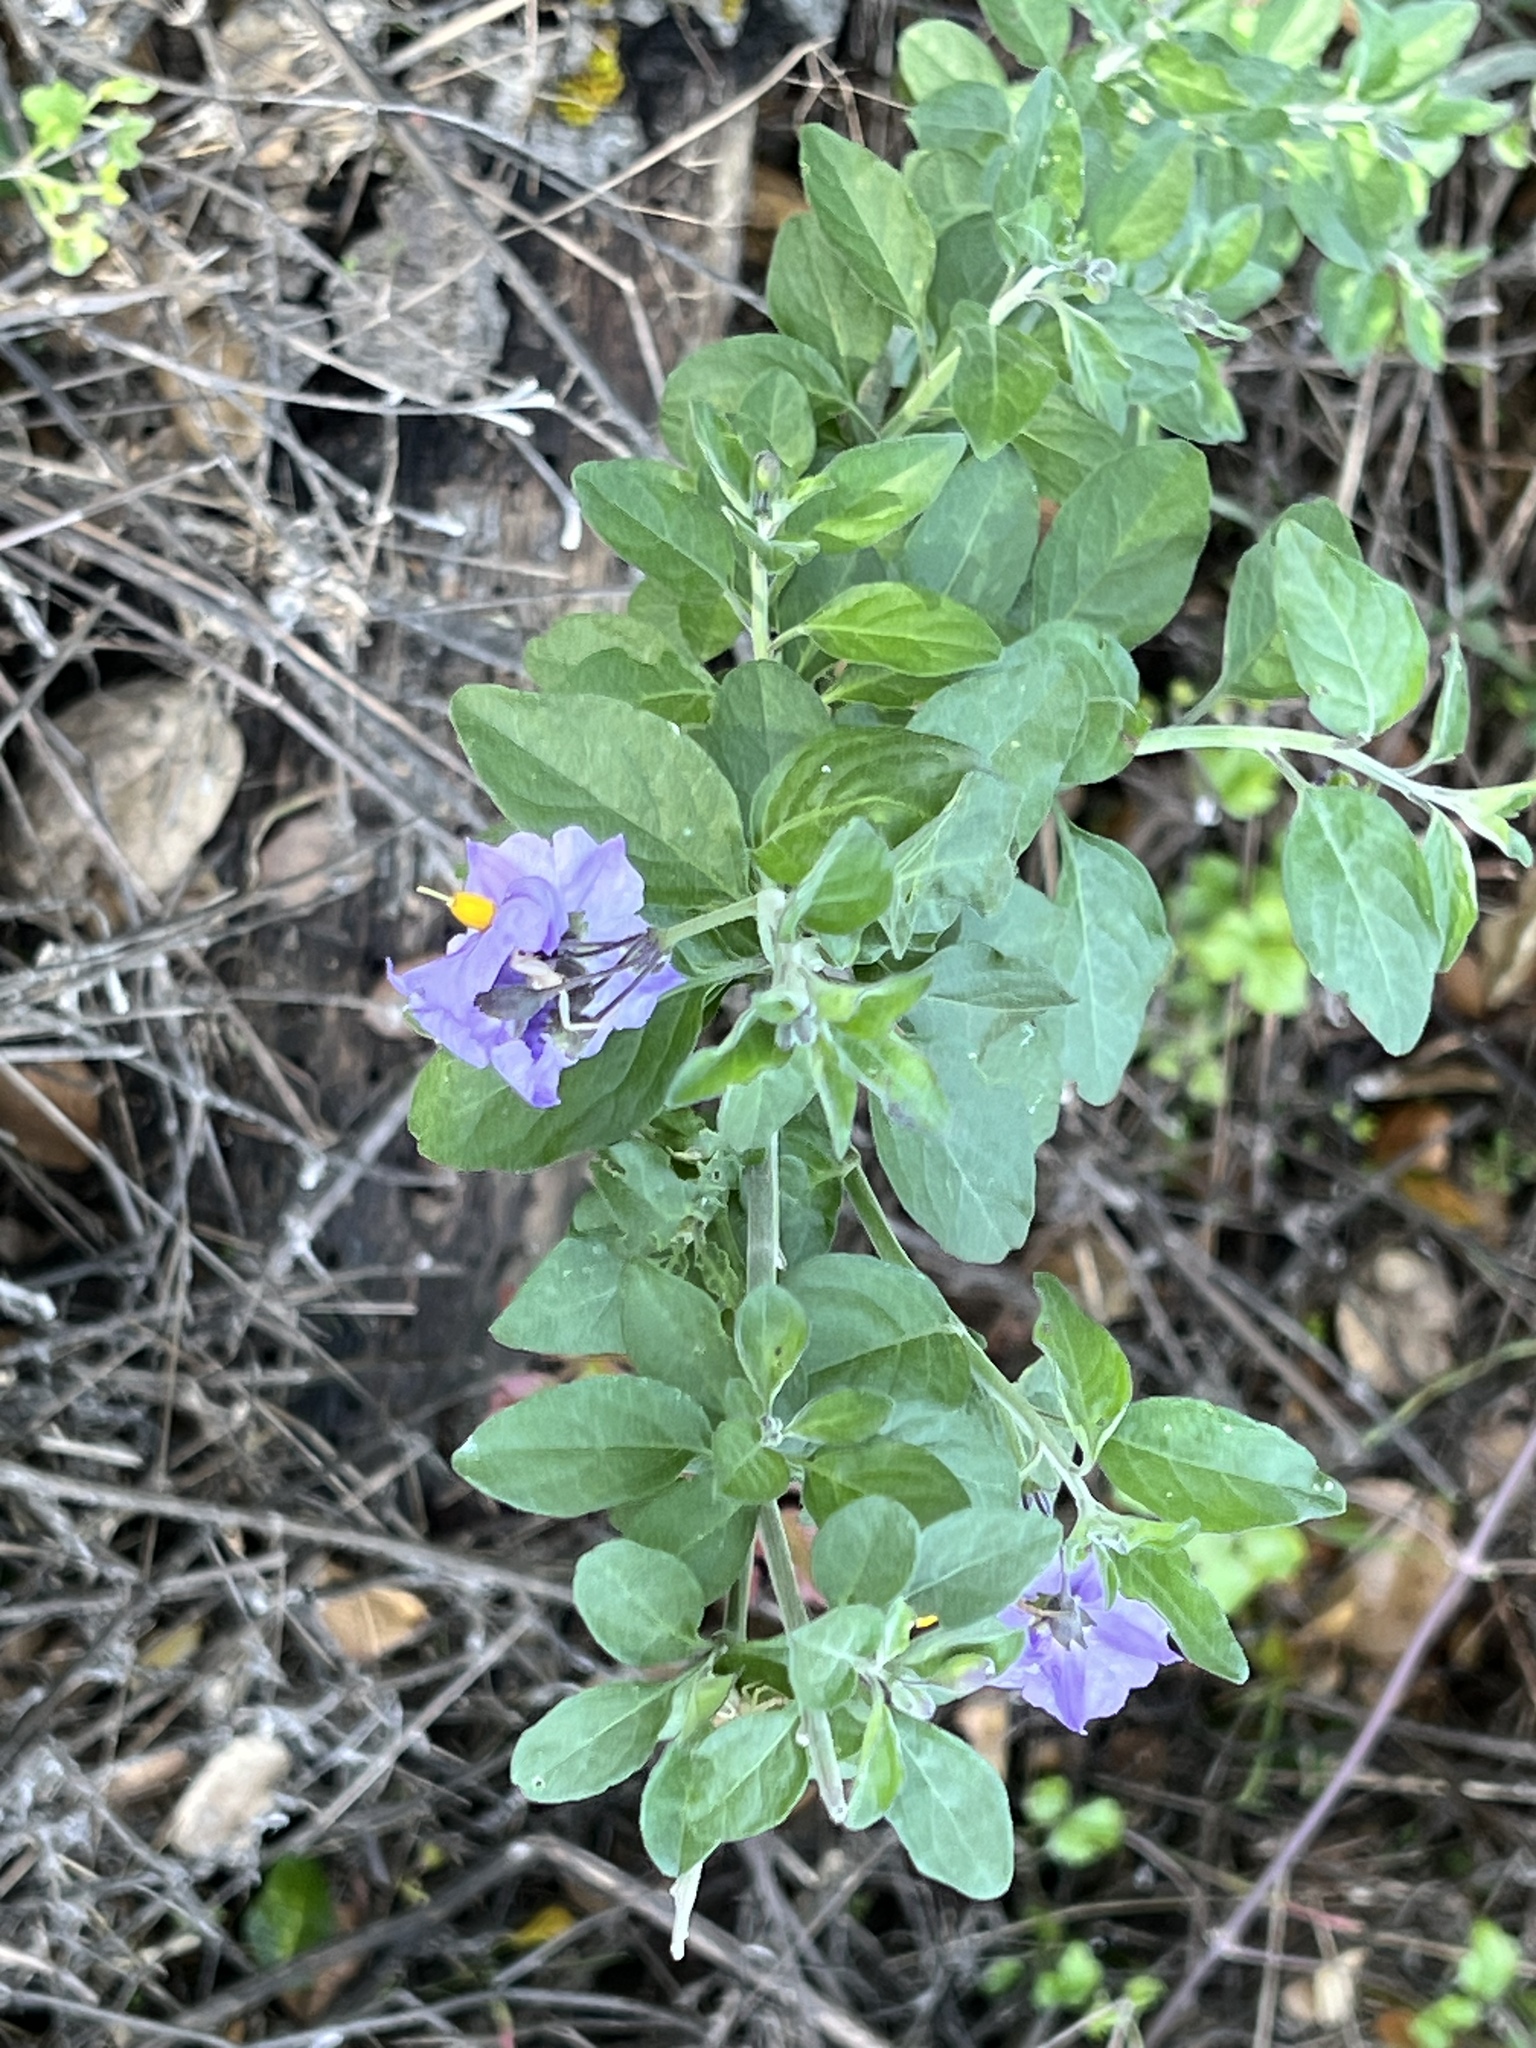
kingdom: Plantae
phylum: Tracheophyta
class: Magnoliopsida
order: Solanales
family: Solanaceae
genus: Solanum
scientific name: Solanum umbelliferum
